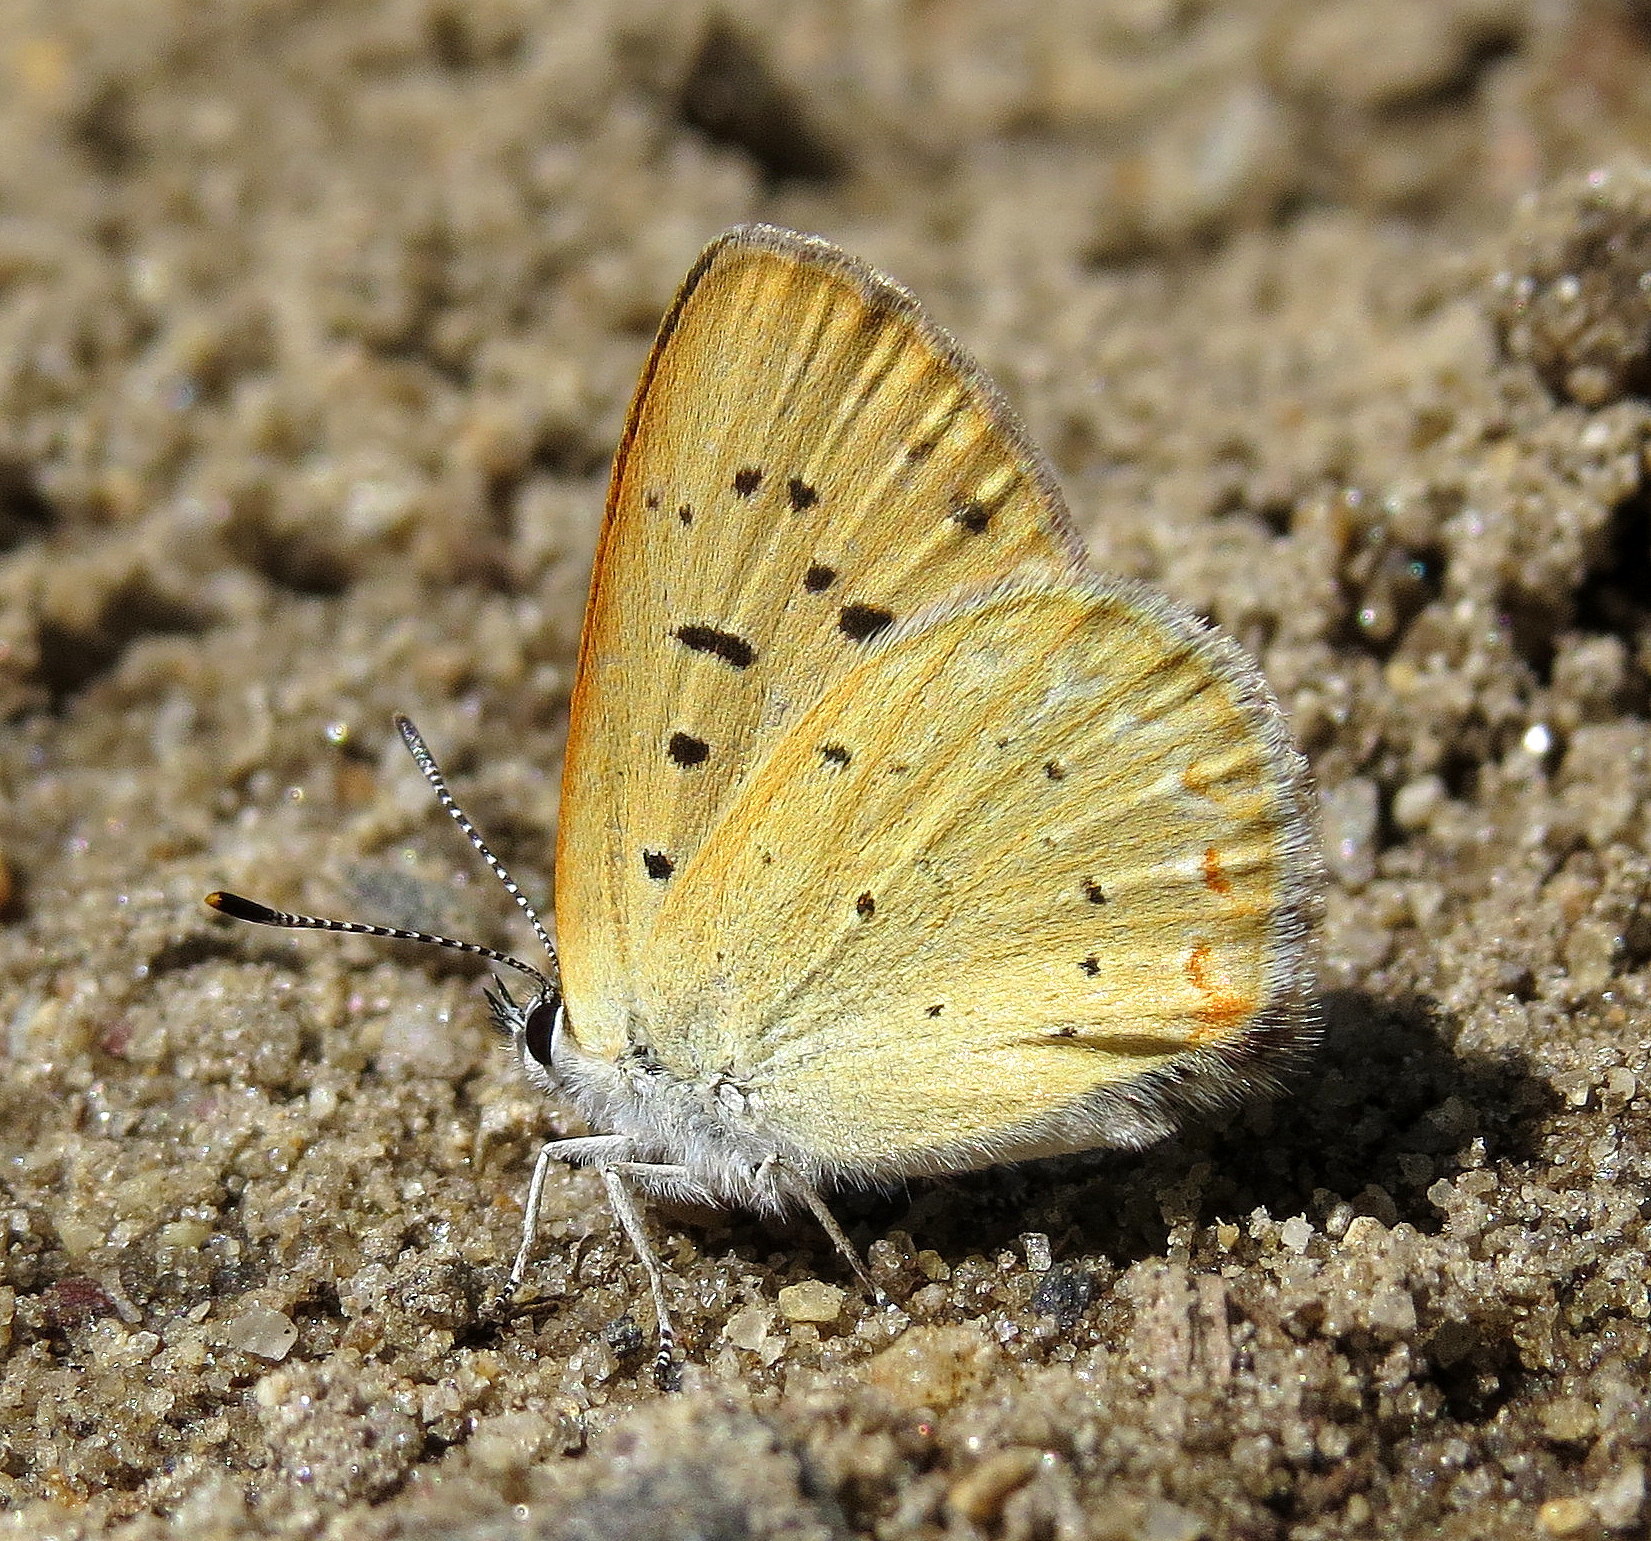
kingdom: Animalia
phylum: Arthropoda
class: Insecta
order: Lepidoptera
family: Lycaenidae
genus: Tharsalea
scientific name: Tharsalea epixanthe
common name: Bog copper
